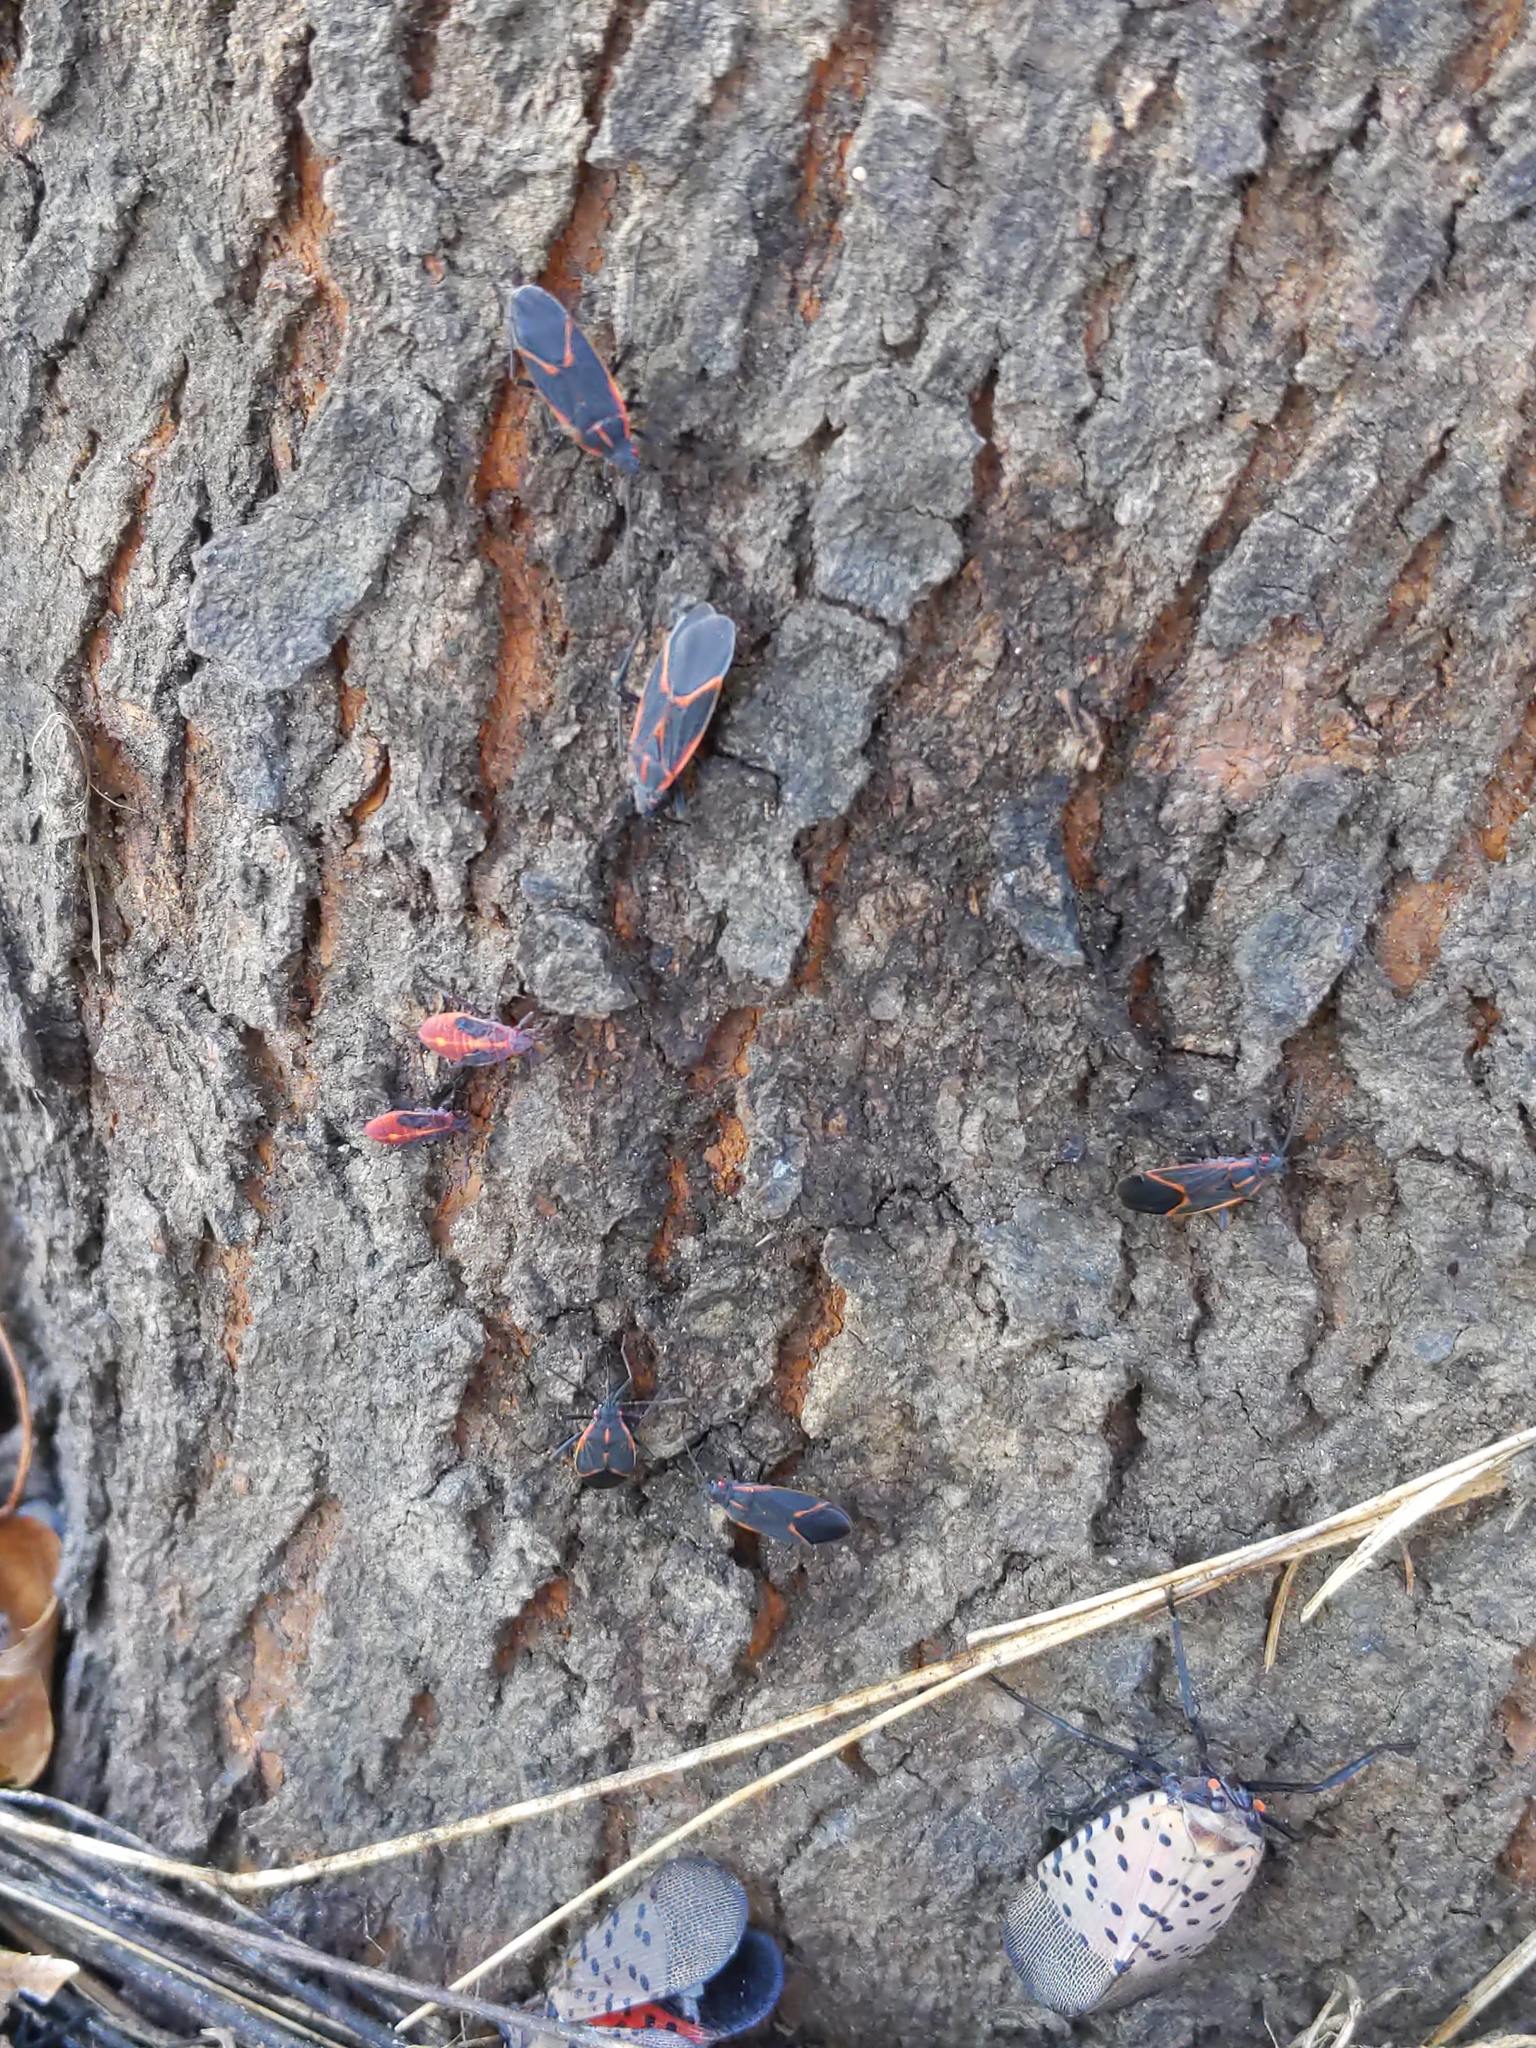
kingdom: Animalia
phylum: Arthropoda
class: Insecta
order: Hemiptera
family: Rhopalidae
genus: Boisea
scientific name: Boisea trivittata
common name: Boxelder bug
